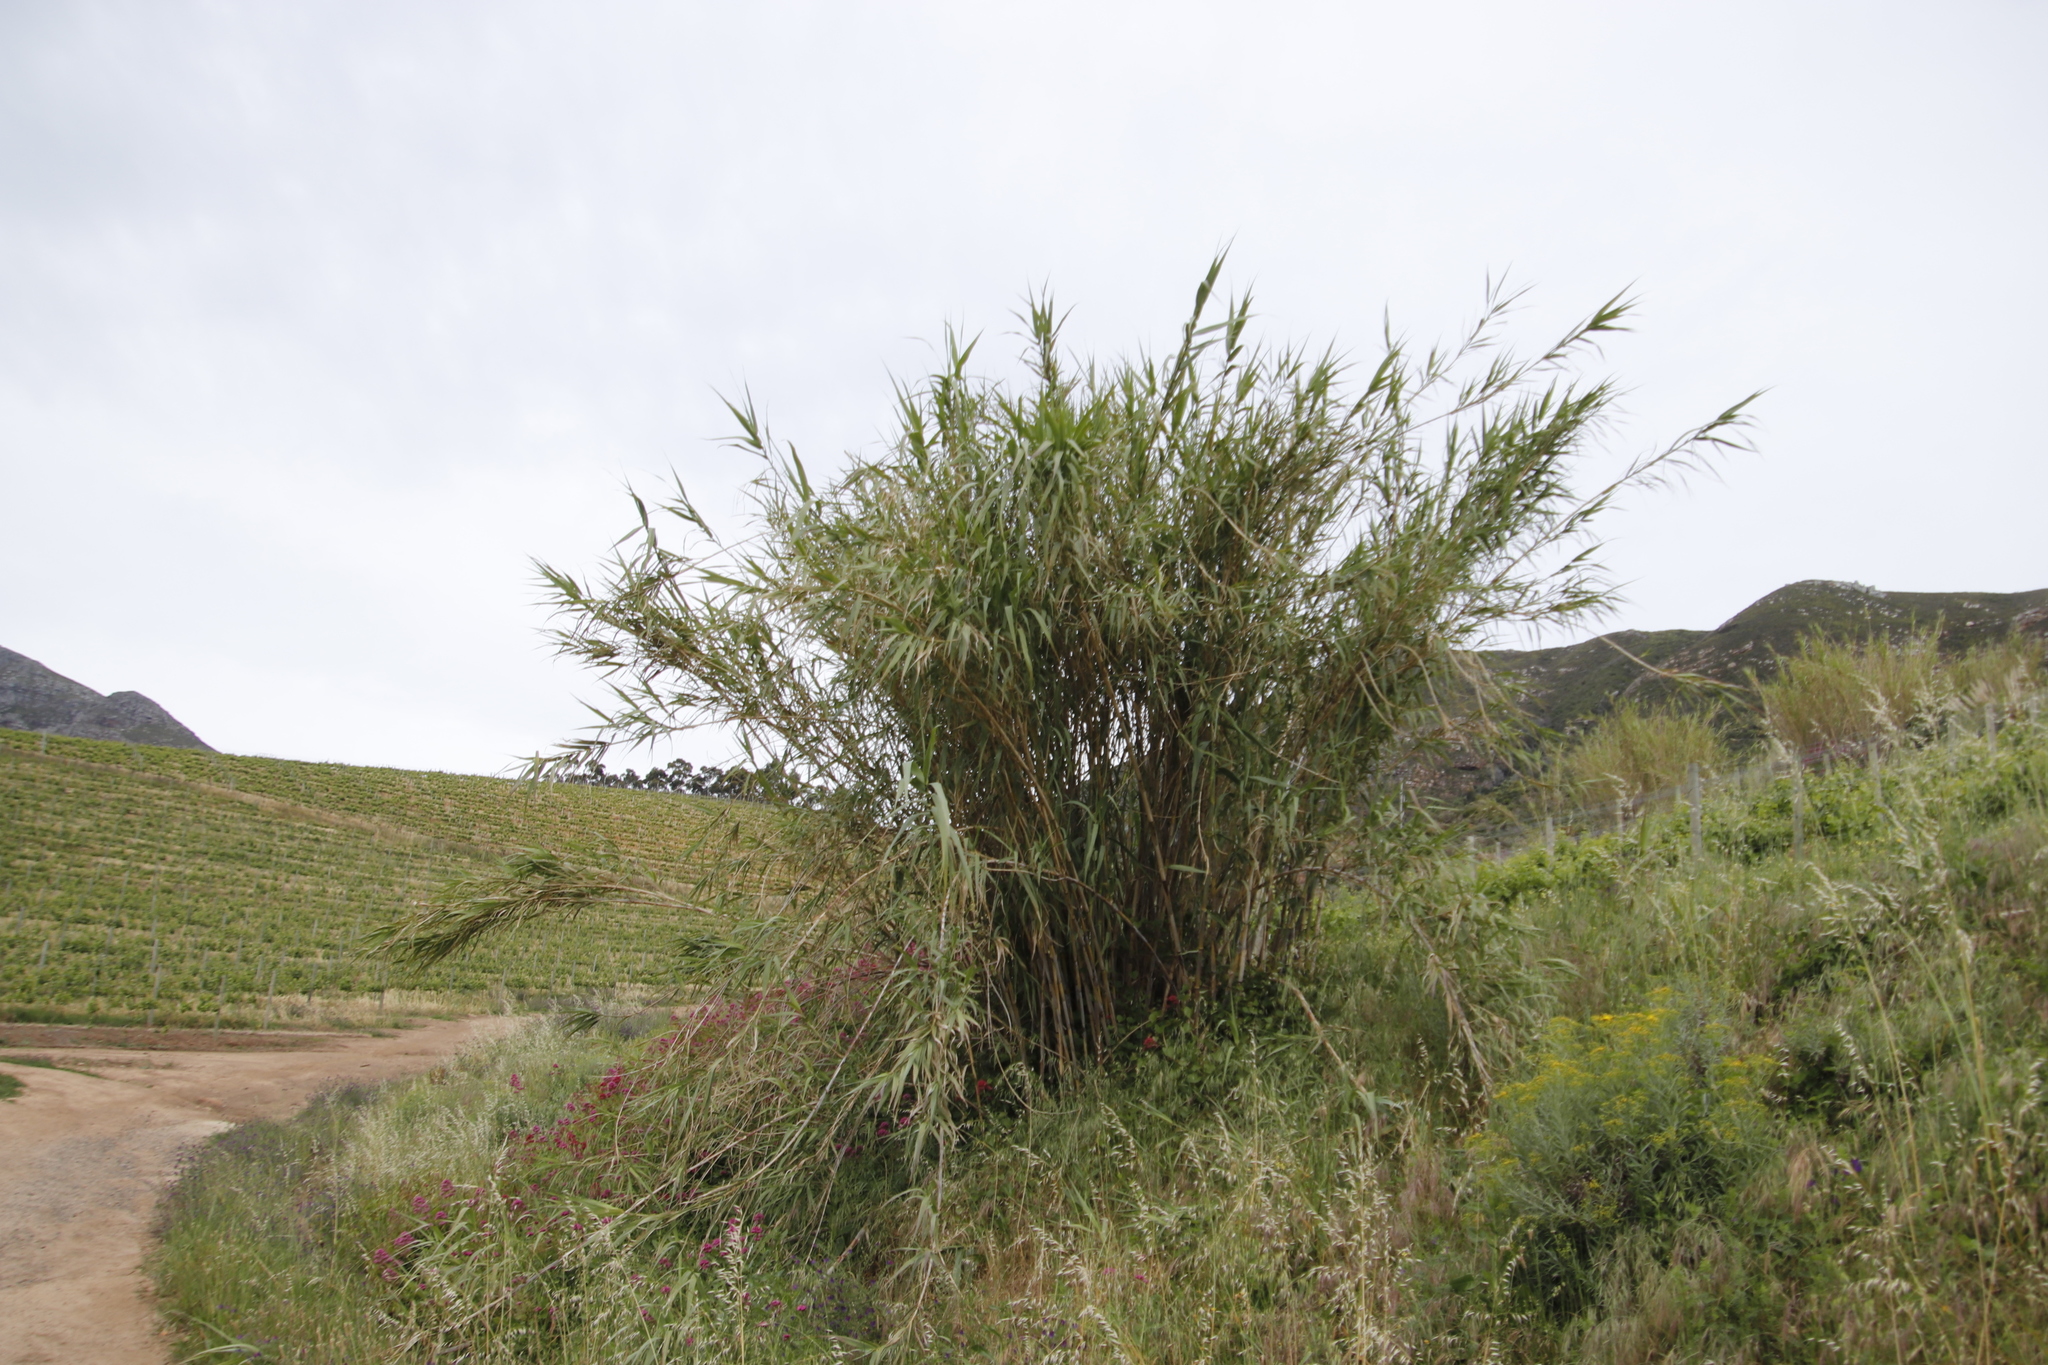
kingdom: Plantae
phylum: Tracheophyta
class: Liliopsida
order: Poales
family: Poaceae
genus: Arundo
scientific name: Arundo donax
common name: Giant reed
